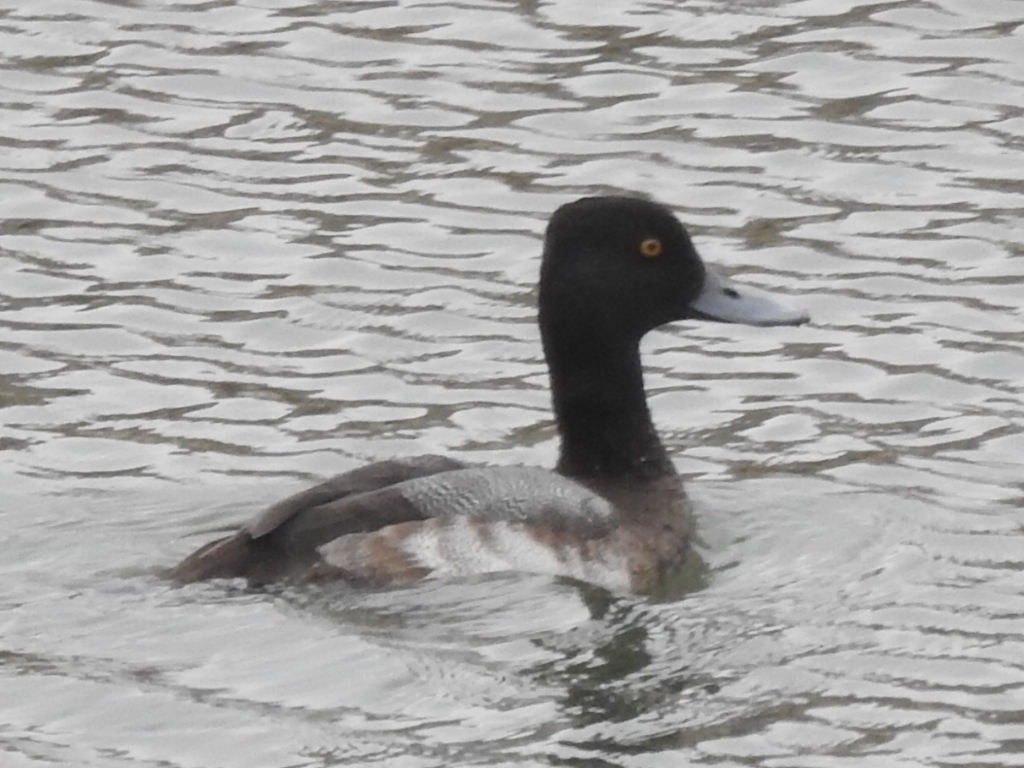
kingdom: Animalia
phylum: Chordata
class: Aves
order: Anseriformes
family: Anatidae
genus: Aythya
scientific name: Aythya affinis
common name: Lesser scaup
